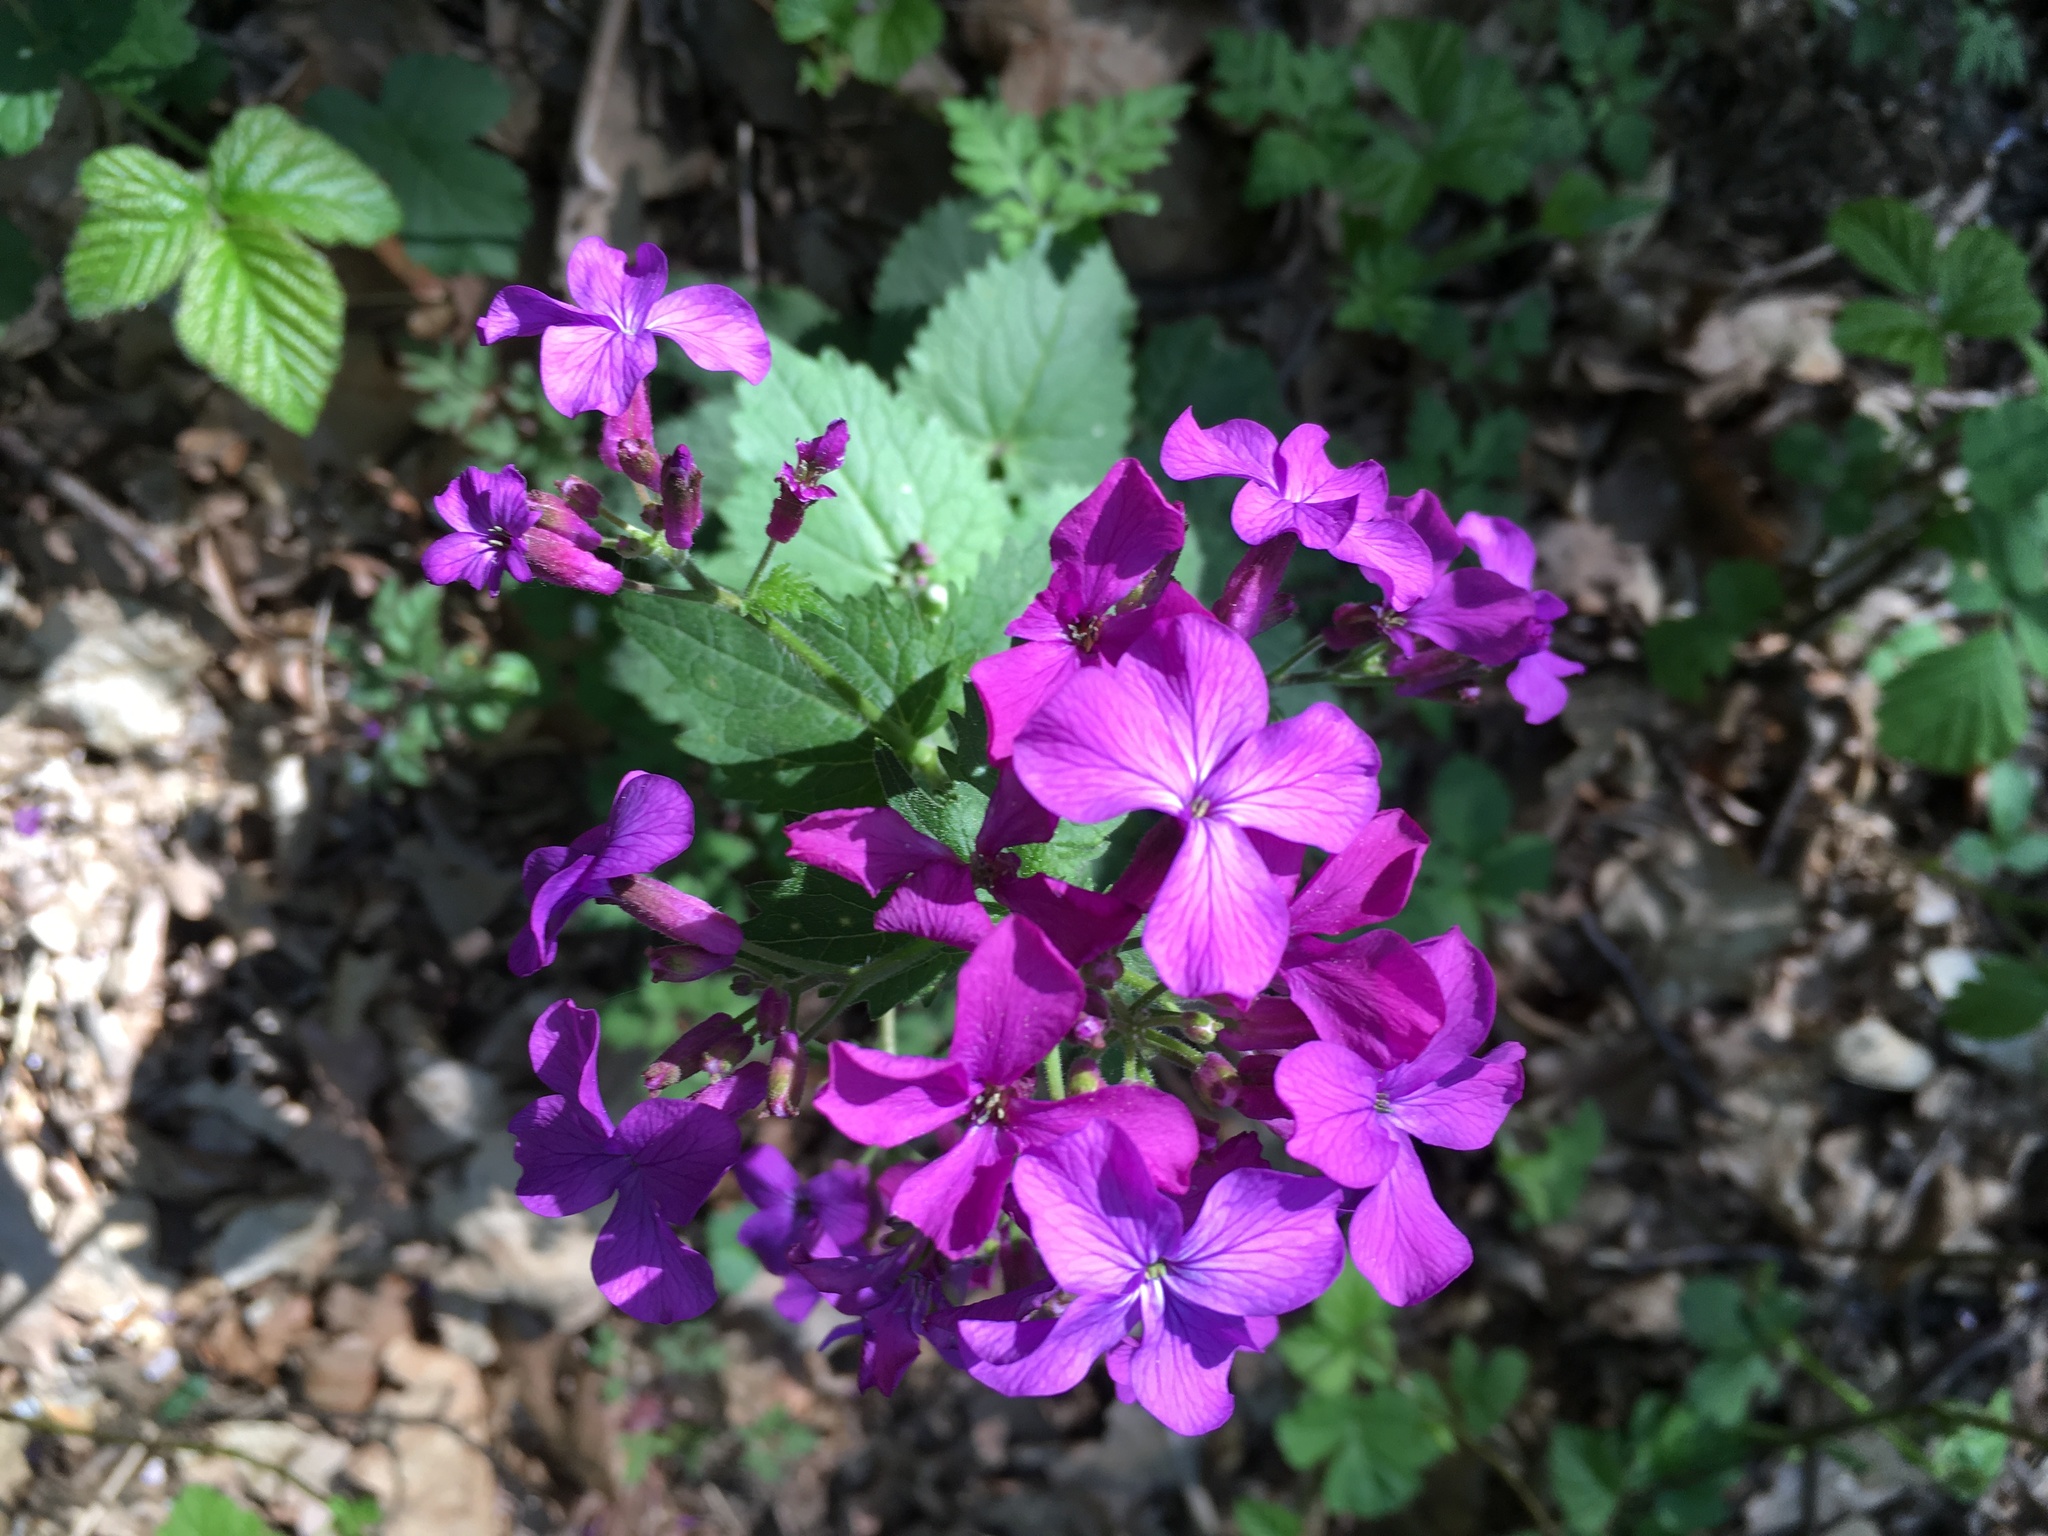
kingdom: Plantae
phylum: Tracheophyta
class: Magnoliopsida
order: Brassicales
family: Brassicaceae
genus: Lunaria
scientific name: Lunaria annua
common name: Honesty
